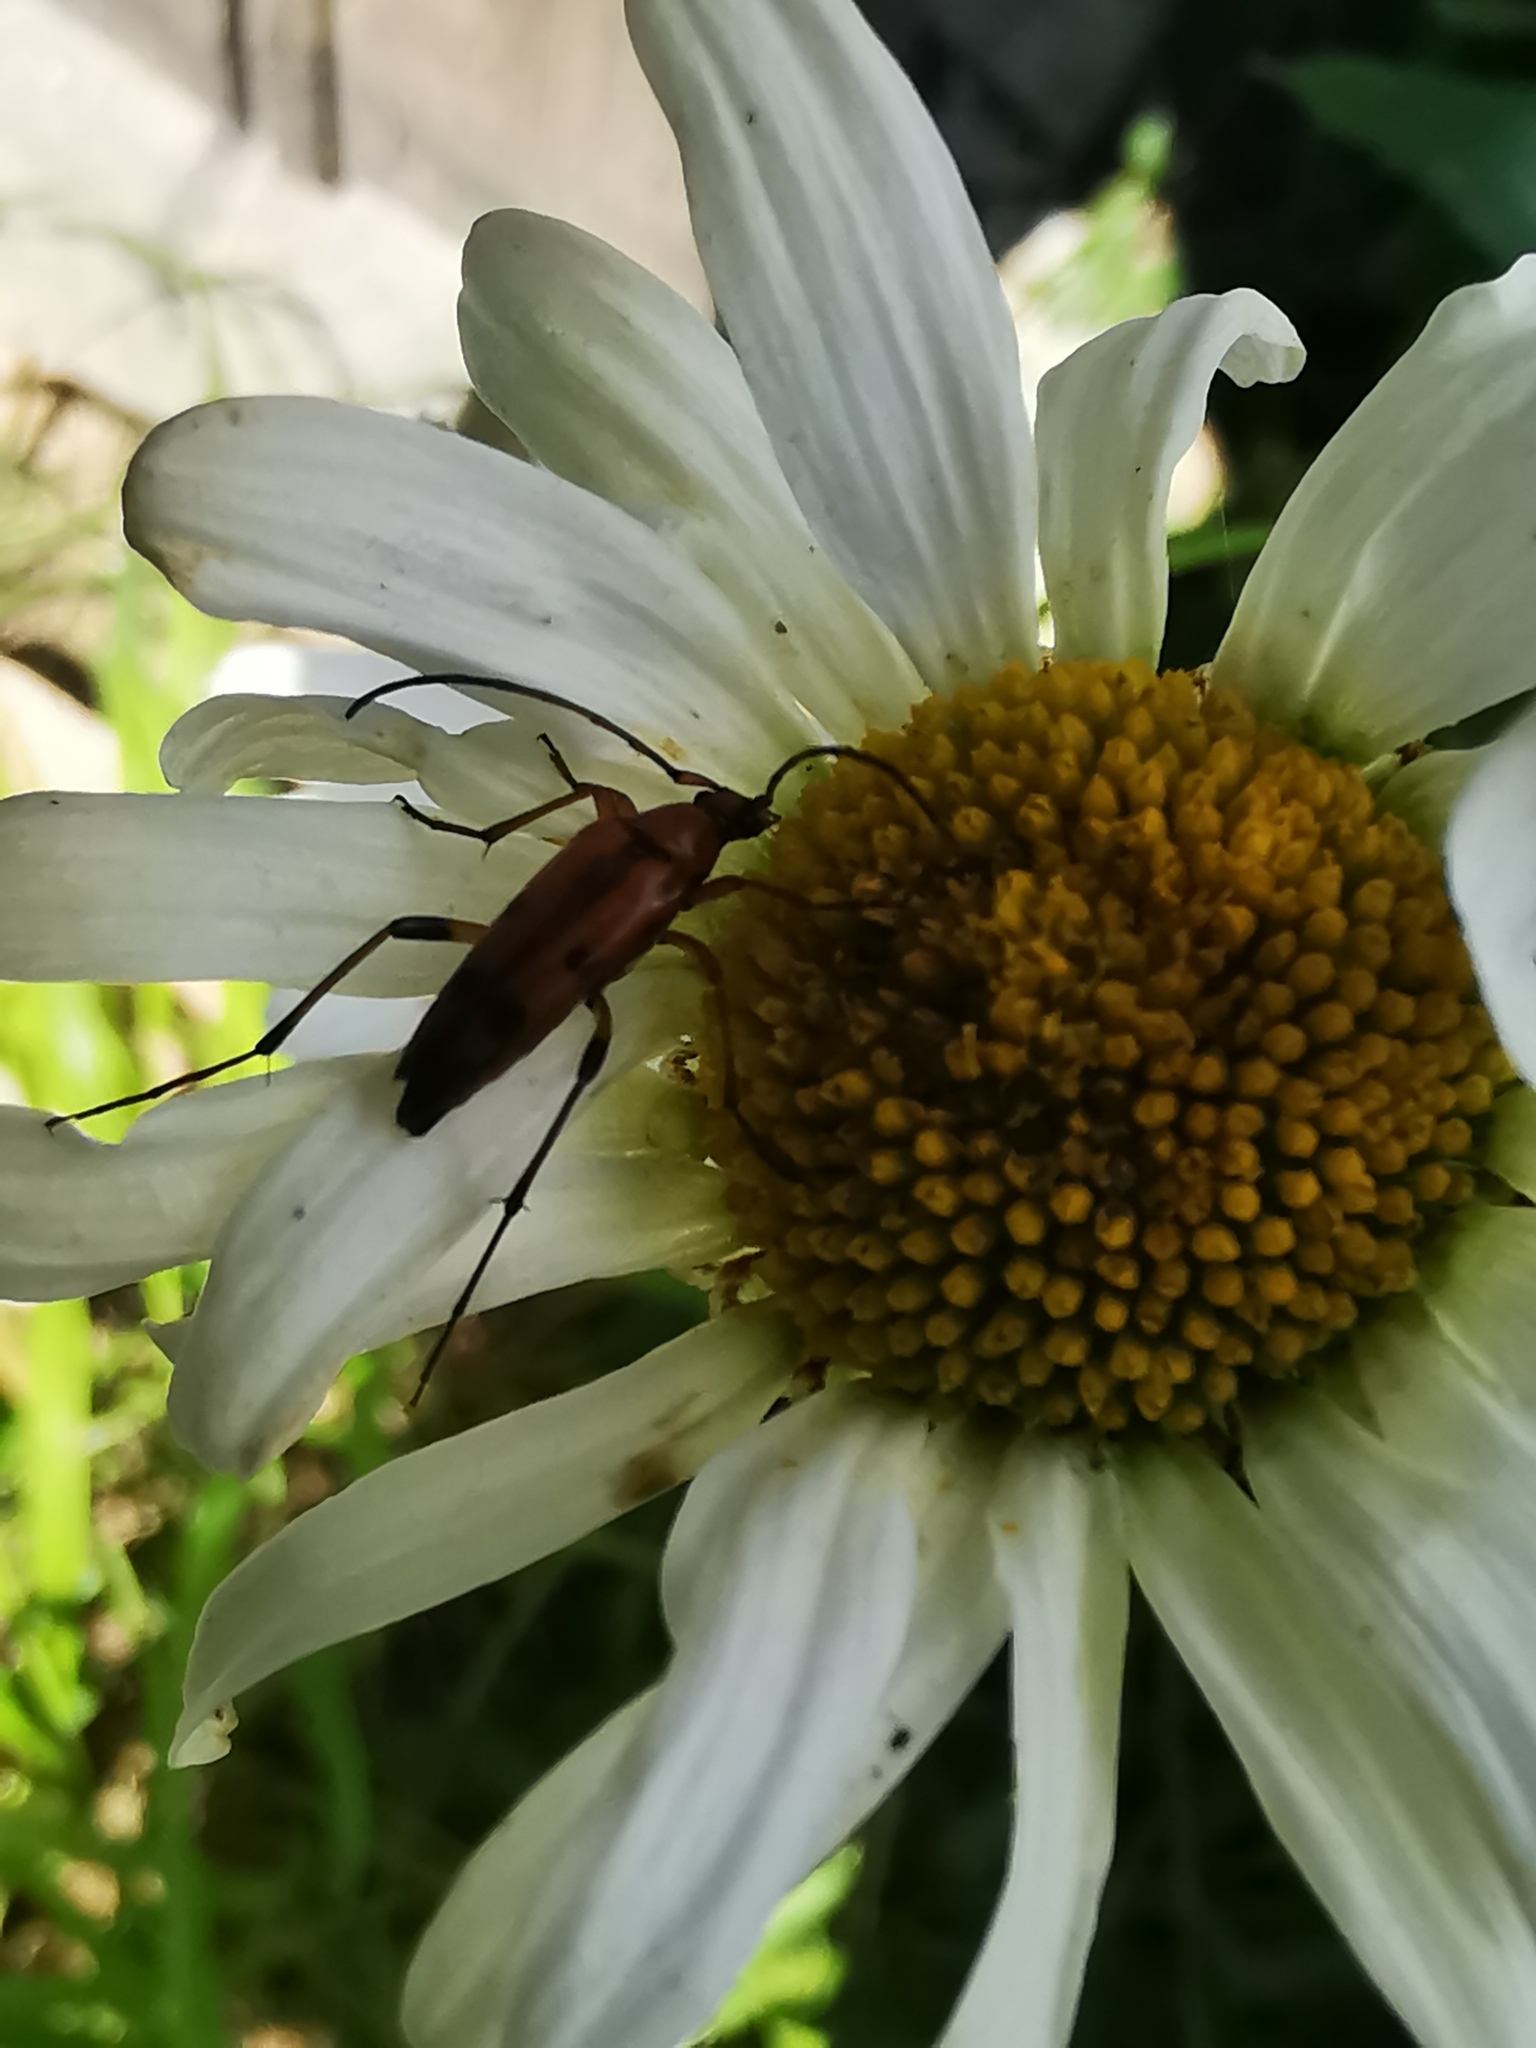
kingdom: Animalia
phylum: Arthropoda
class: Insecta
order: Coleoptera
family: Cerambycidae
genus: Stenurella
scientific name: Stenurella septempunctata
